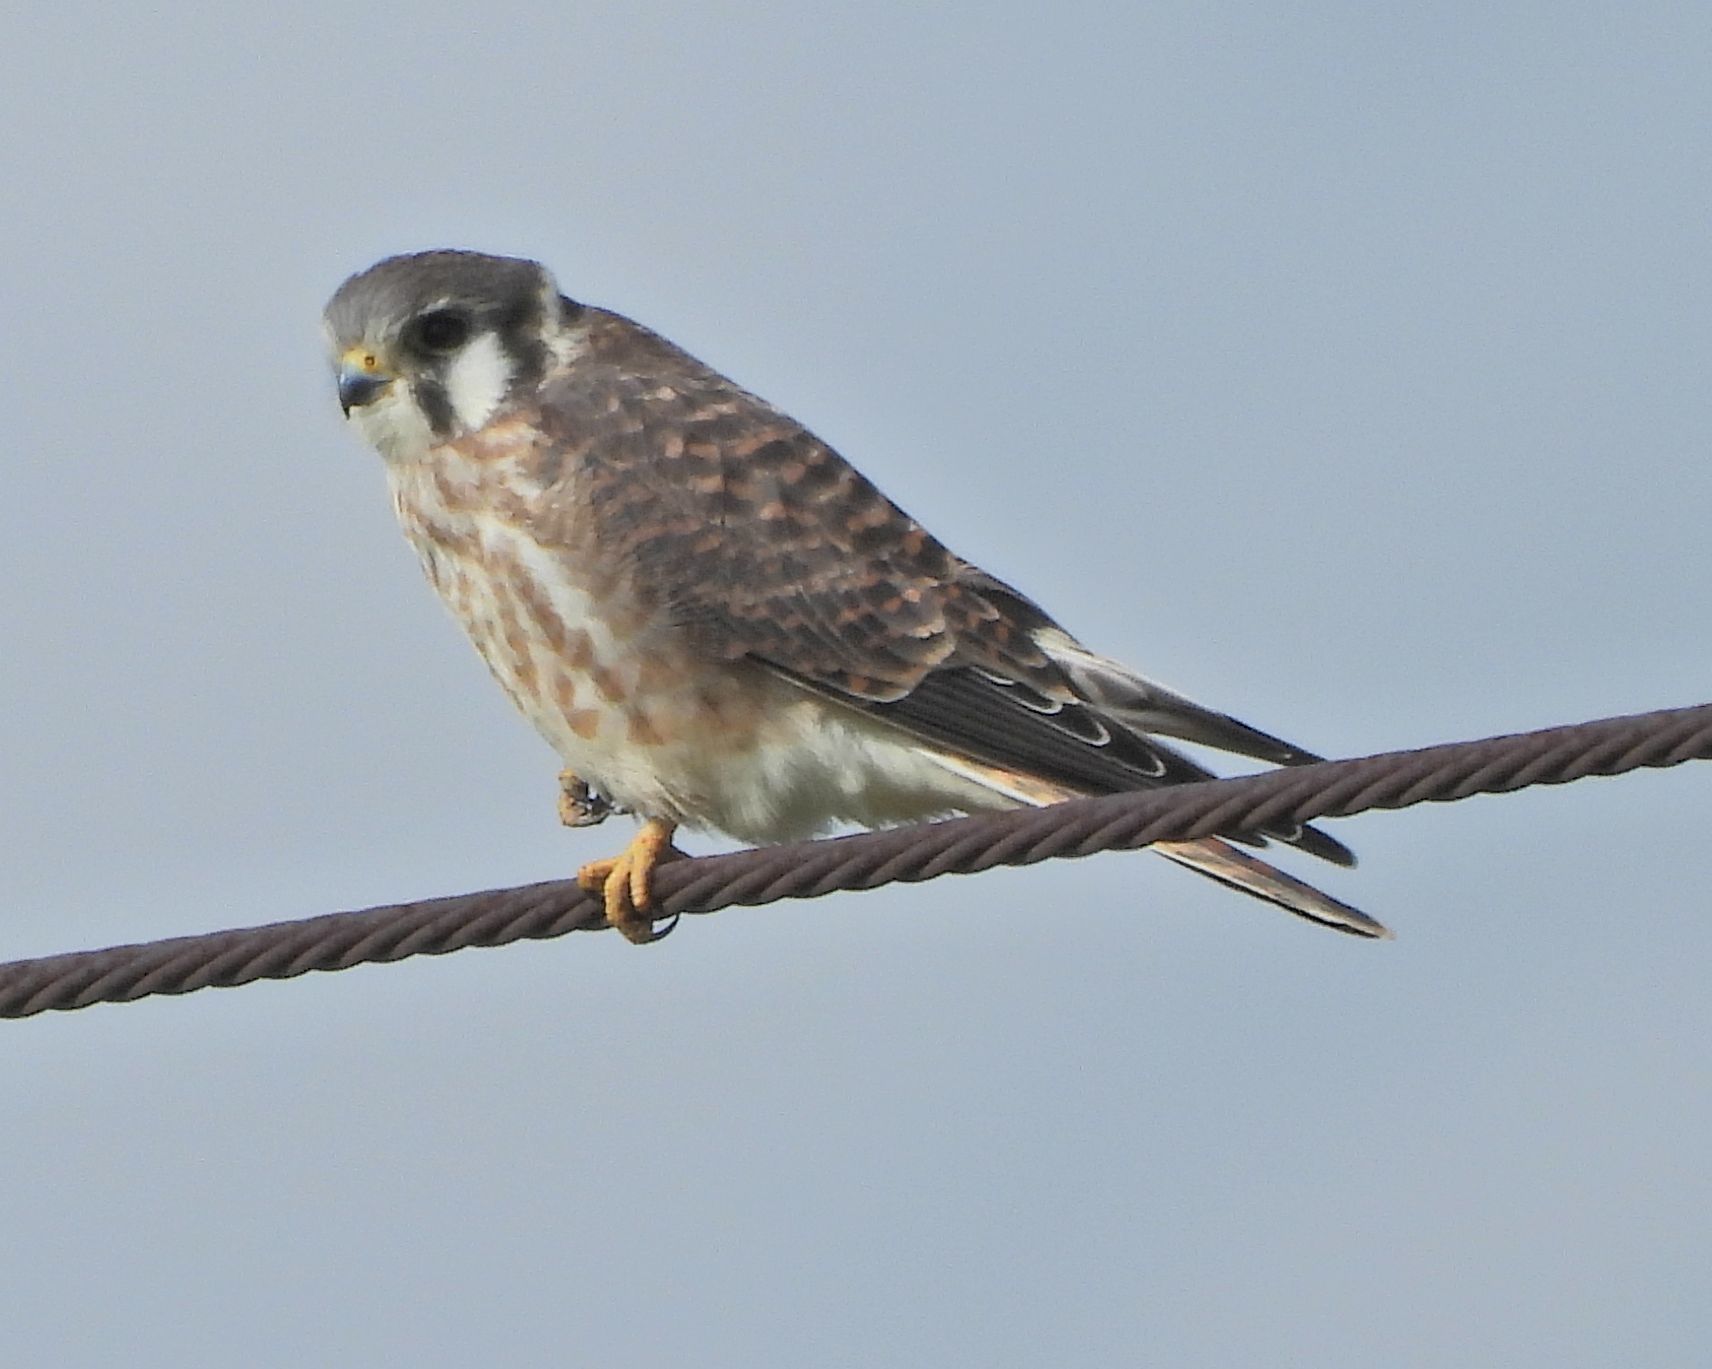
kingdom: Animalia
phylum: Chordata
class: Aves
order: Falconiformes
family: Falconidae
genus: Falco
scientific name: Falco sparverius
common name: American kestrel
